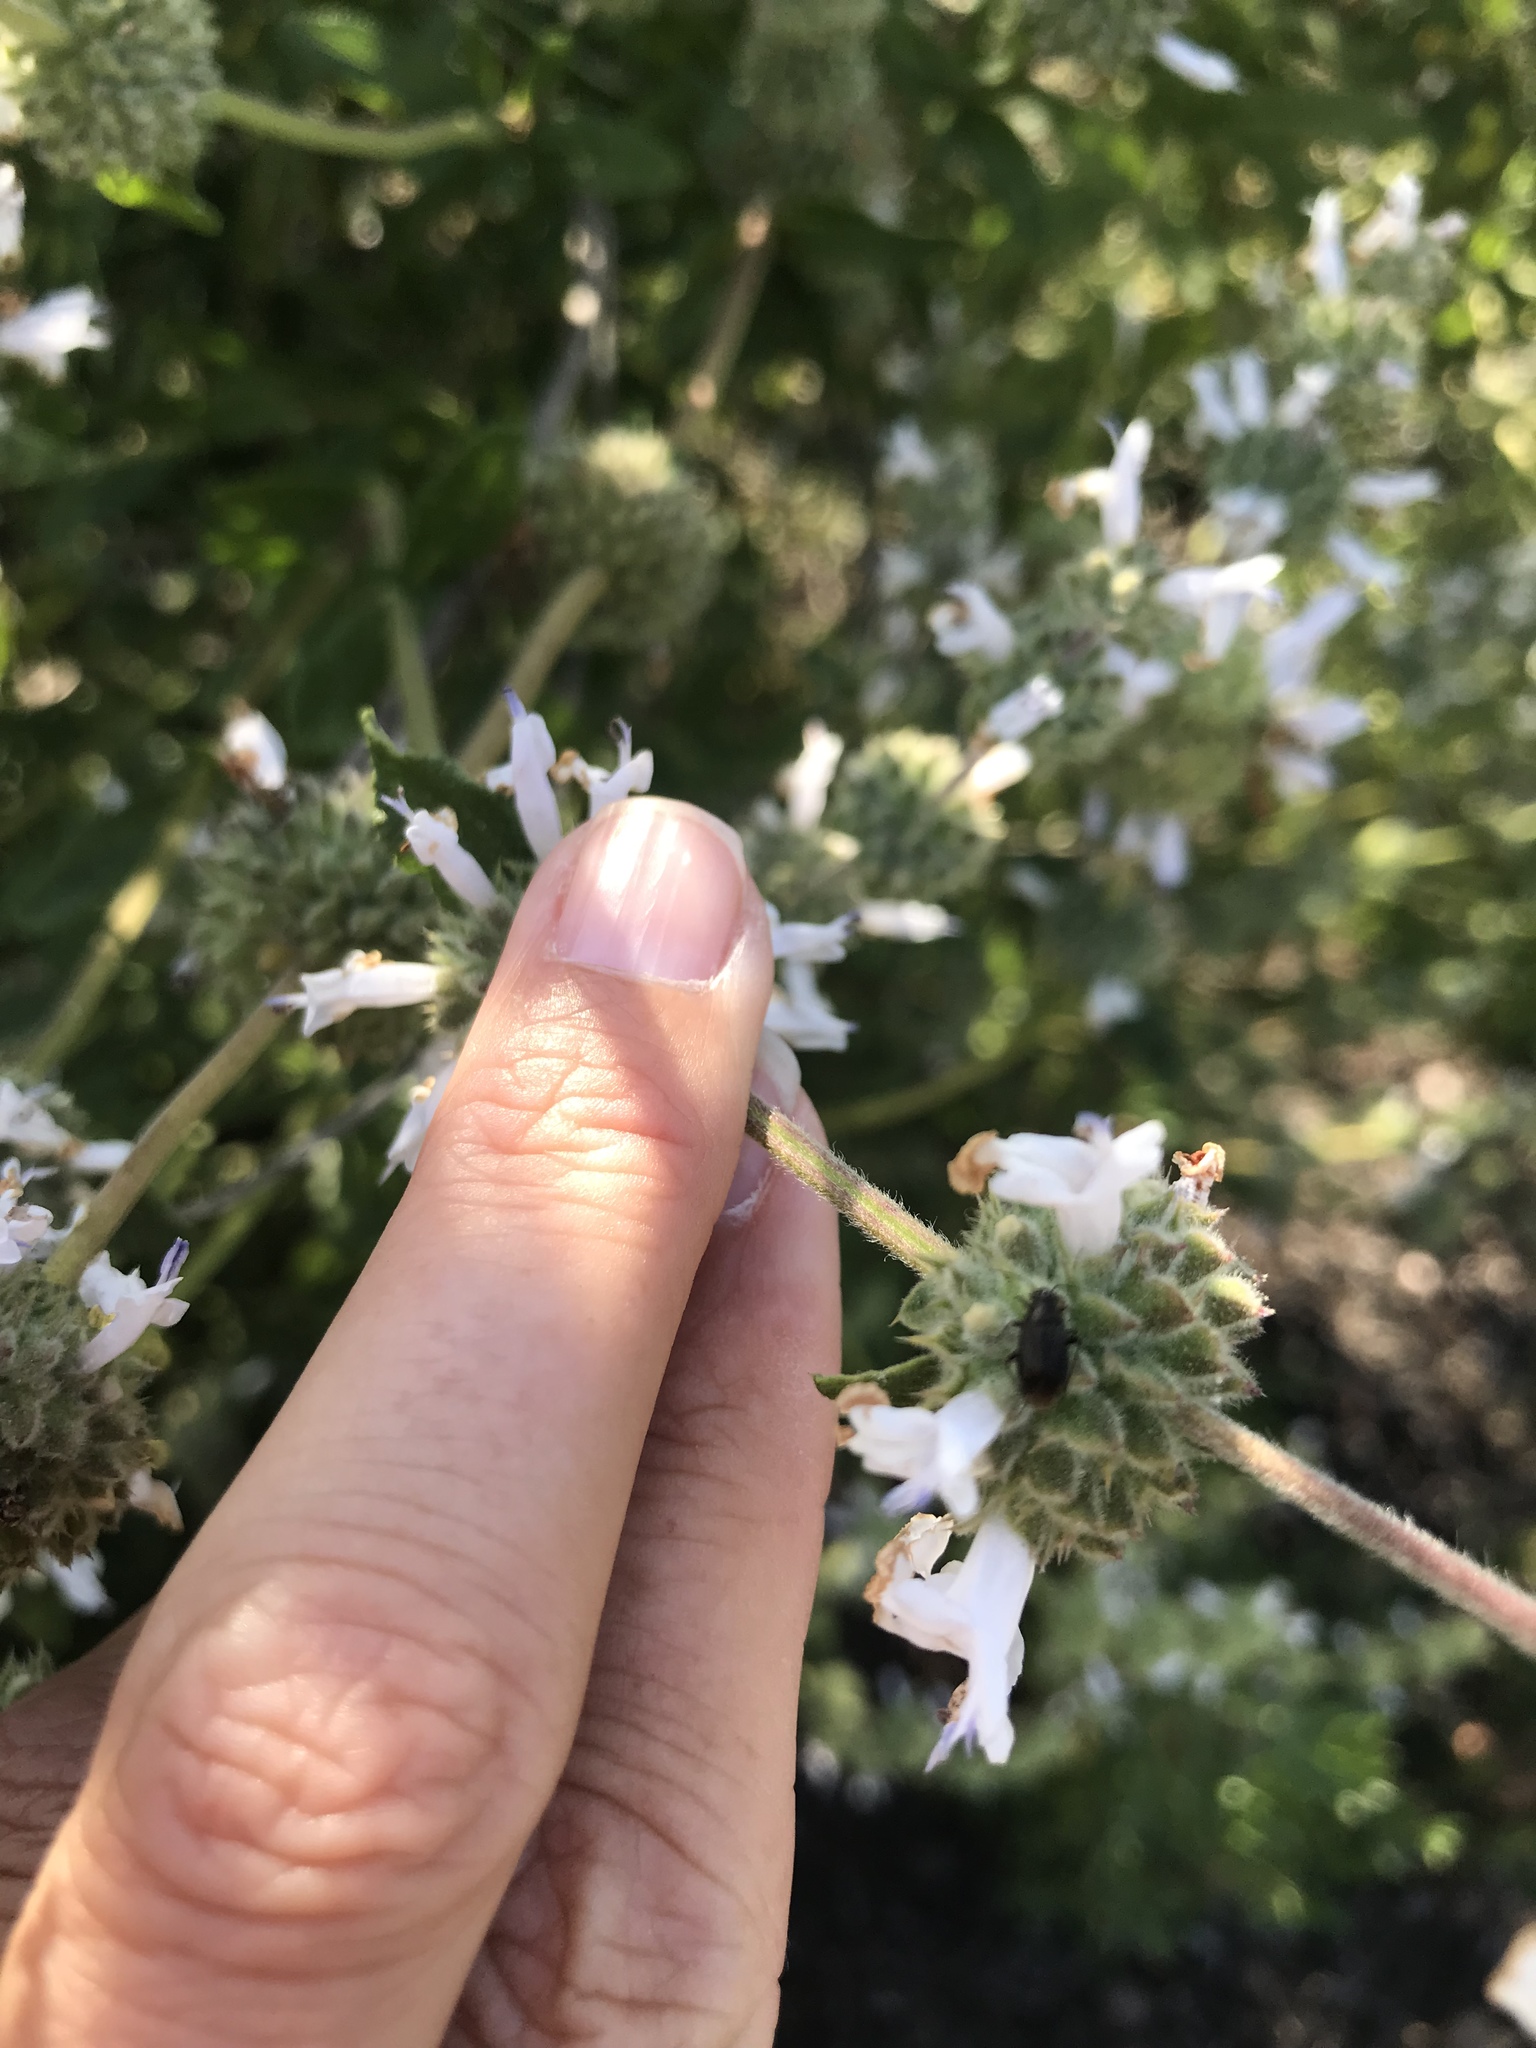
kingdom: Plantae
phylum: Tracheophyta
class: Magnoliopsida
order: Lamiales
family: Lamiaceae
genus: Salvia
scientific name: Salvia mellifera
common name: Black sage
